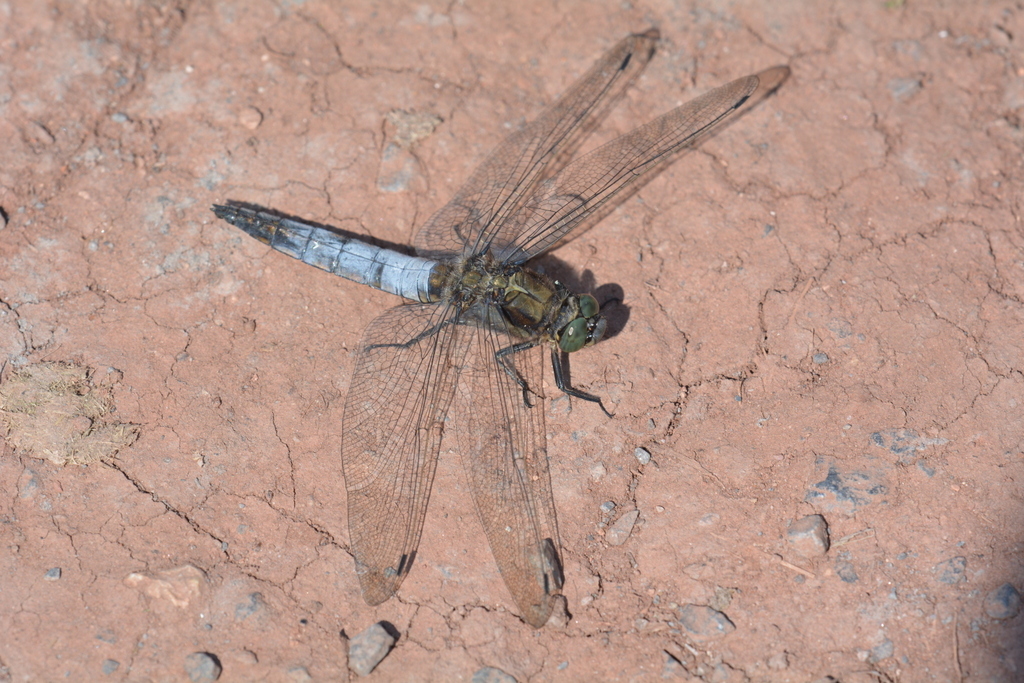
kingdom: Animalia
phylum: Arthropoda
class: Insecta
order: Odonata
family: Libellulidae
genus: Orthetrum
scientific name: Orthetrum cancellatum
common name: Black-tailed skimmer
